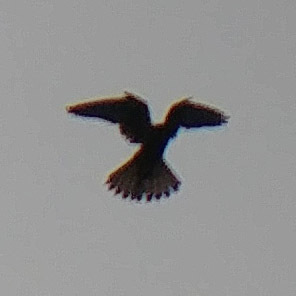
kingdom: Animalia
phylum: Chordata
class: Aves
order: Falconiformes
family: Falconidae
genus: Falco
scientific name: Falco tinnunculus
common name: Common kestrel
